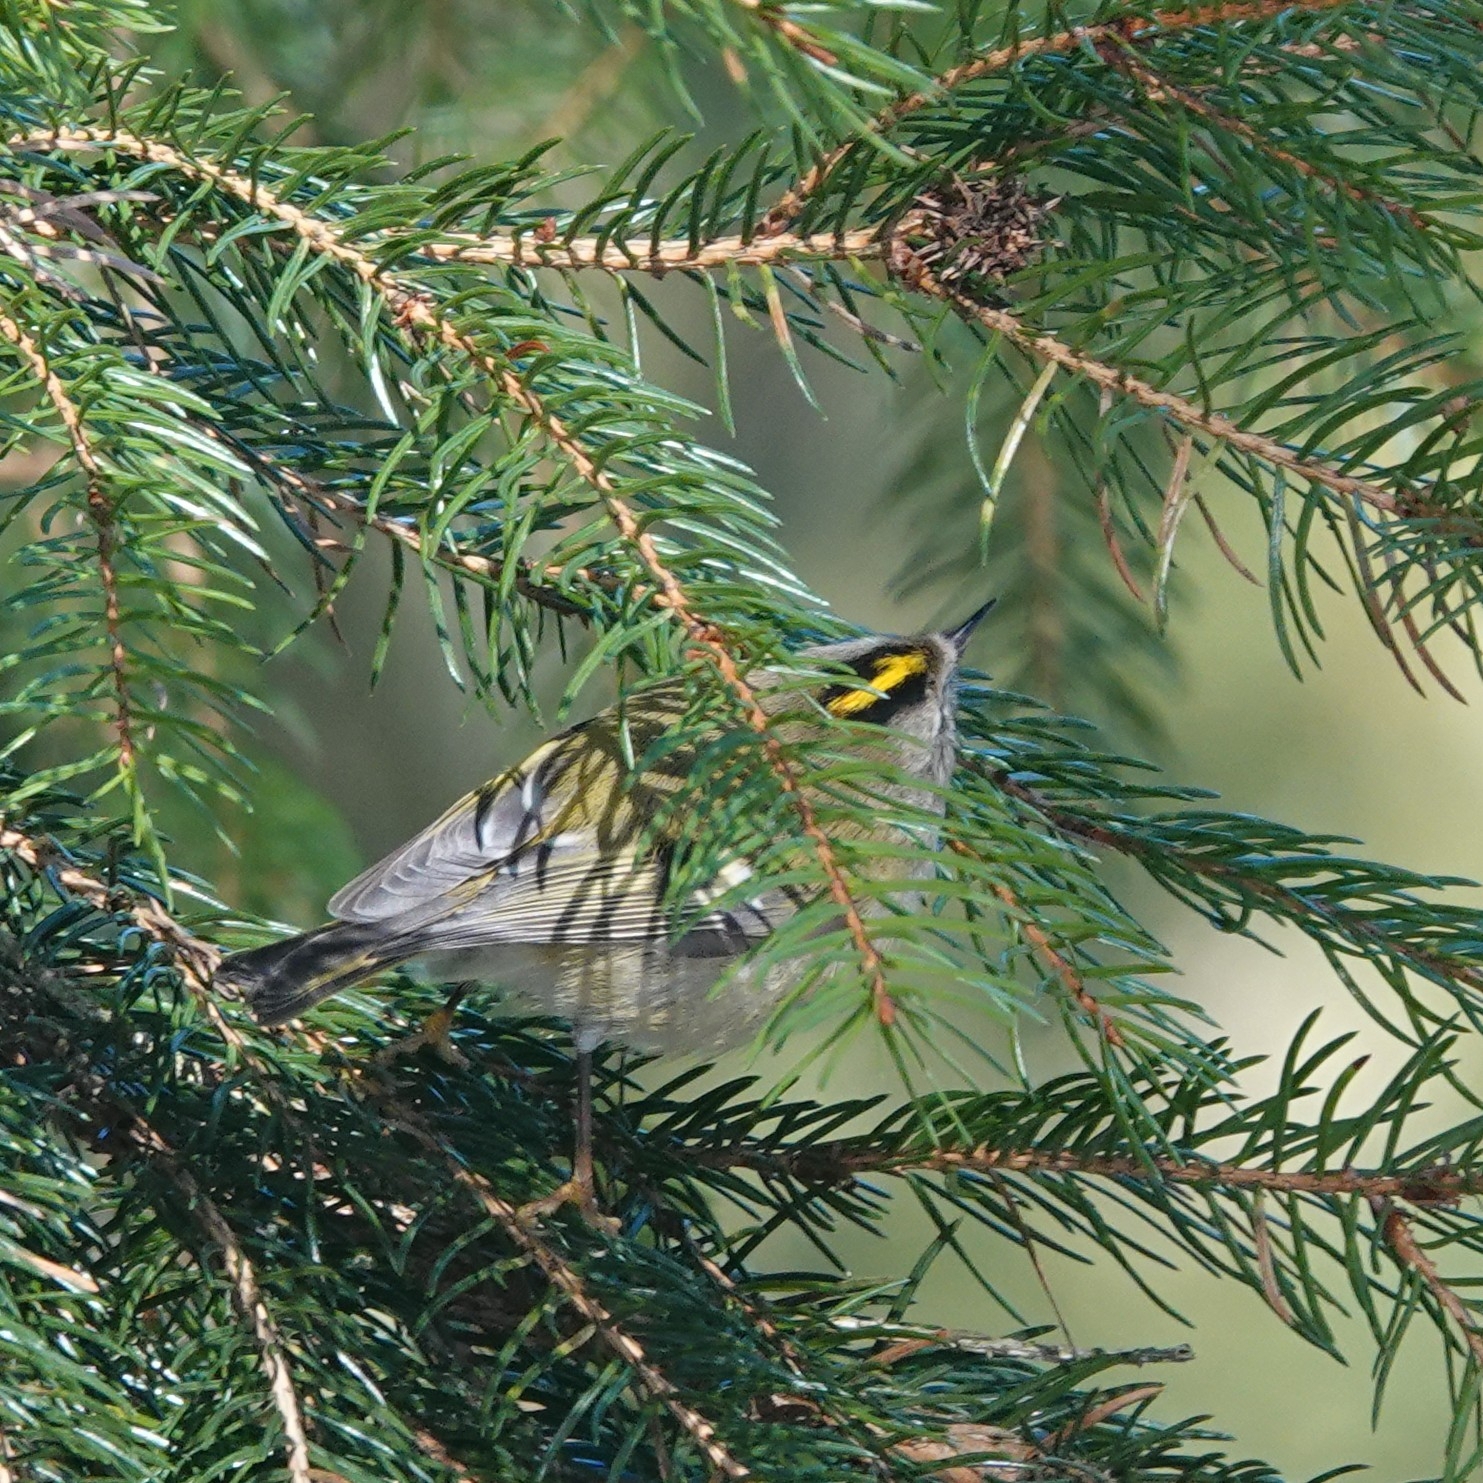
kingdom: Animalia
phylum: Chordata
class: Aves
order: Passeriformes
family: Regulidae
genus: Regulus
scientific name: Regulus regulus
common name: Goldcrest
